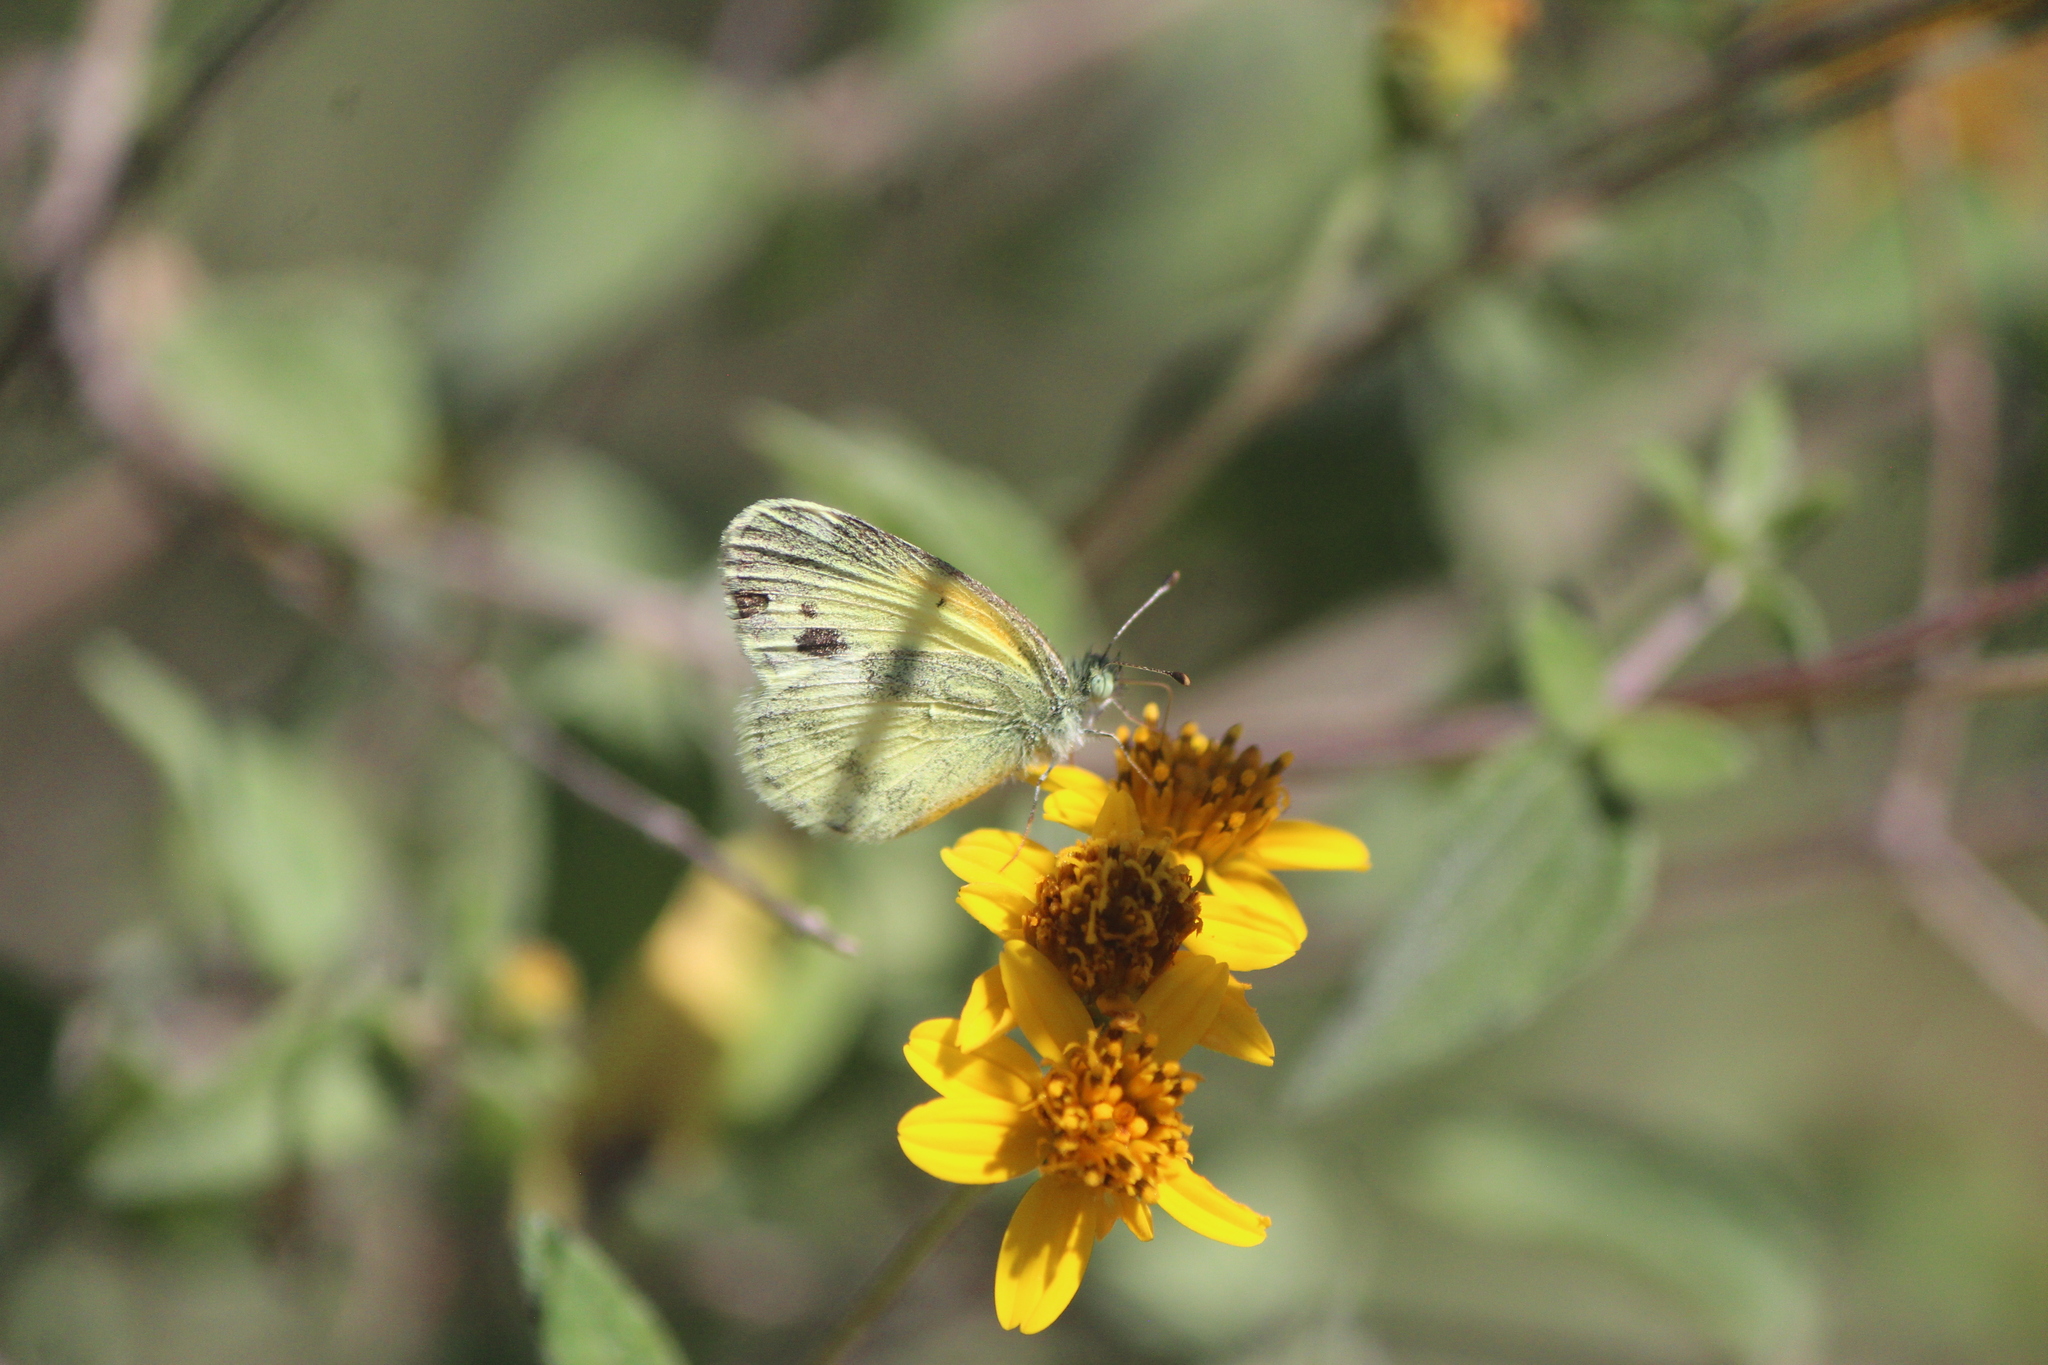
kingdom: Animalia
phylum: Arthropoda
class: Insecta
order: Lepidoptera
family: Pieridae
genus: Nathalis
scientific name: Nathalis iole
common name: Dainty sulphur
